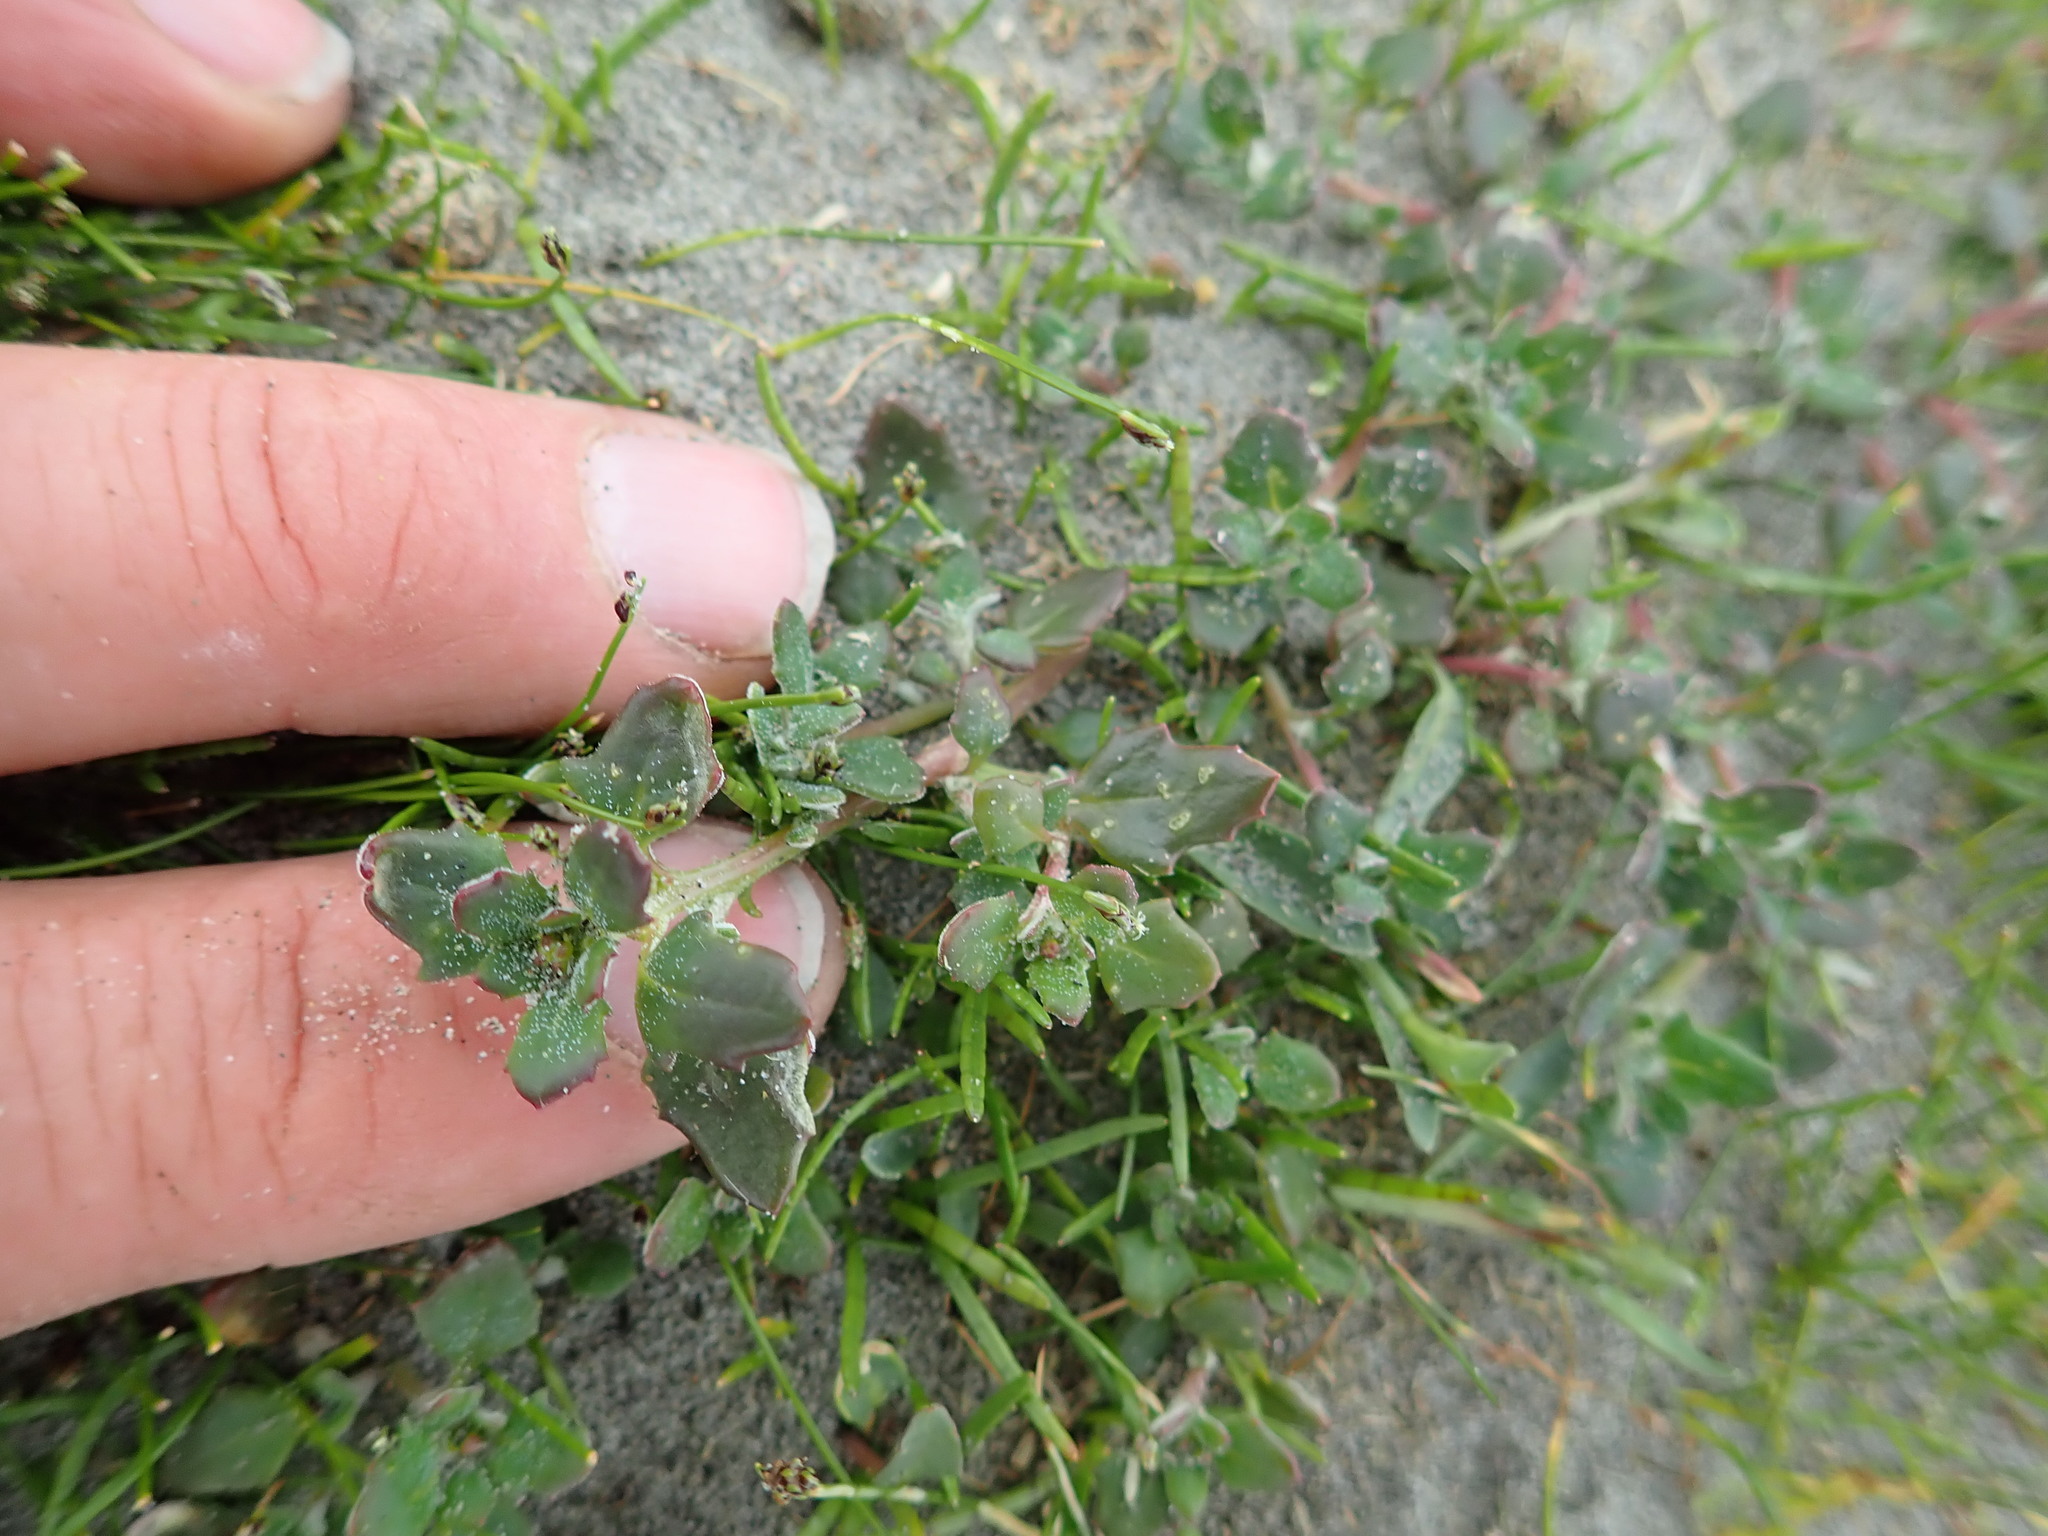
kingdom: Plantae
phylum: Tracheophyta
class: Magnoliopsida
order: Caryophyllales
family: Amaranthaceae
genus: Oxybasis
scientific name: Oxybasis ambigua
